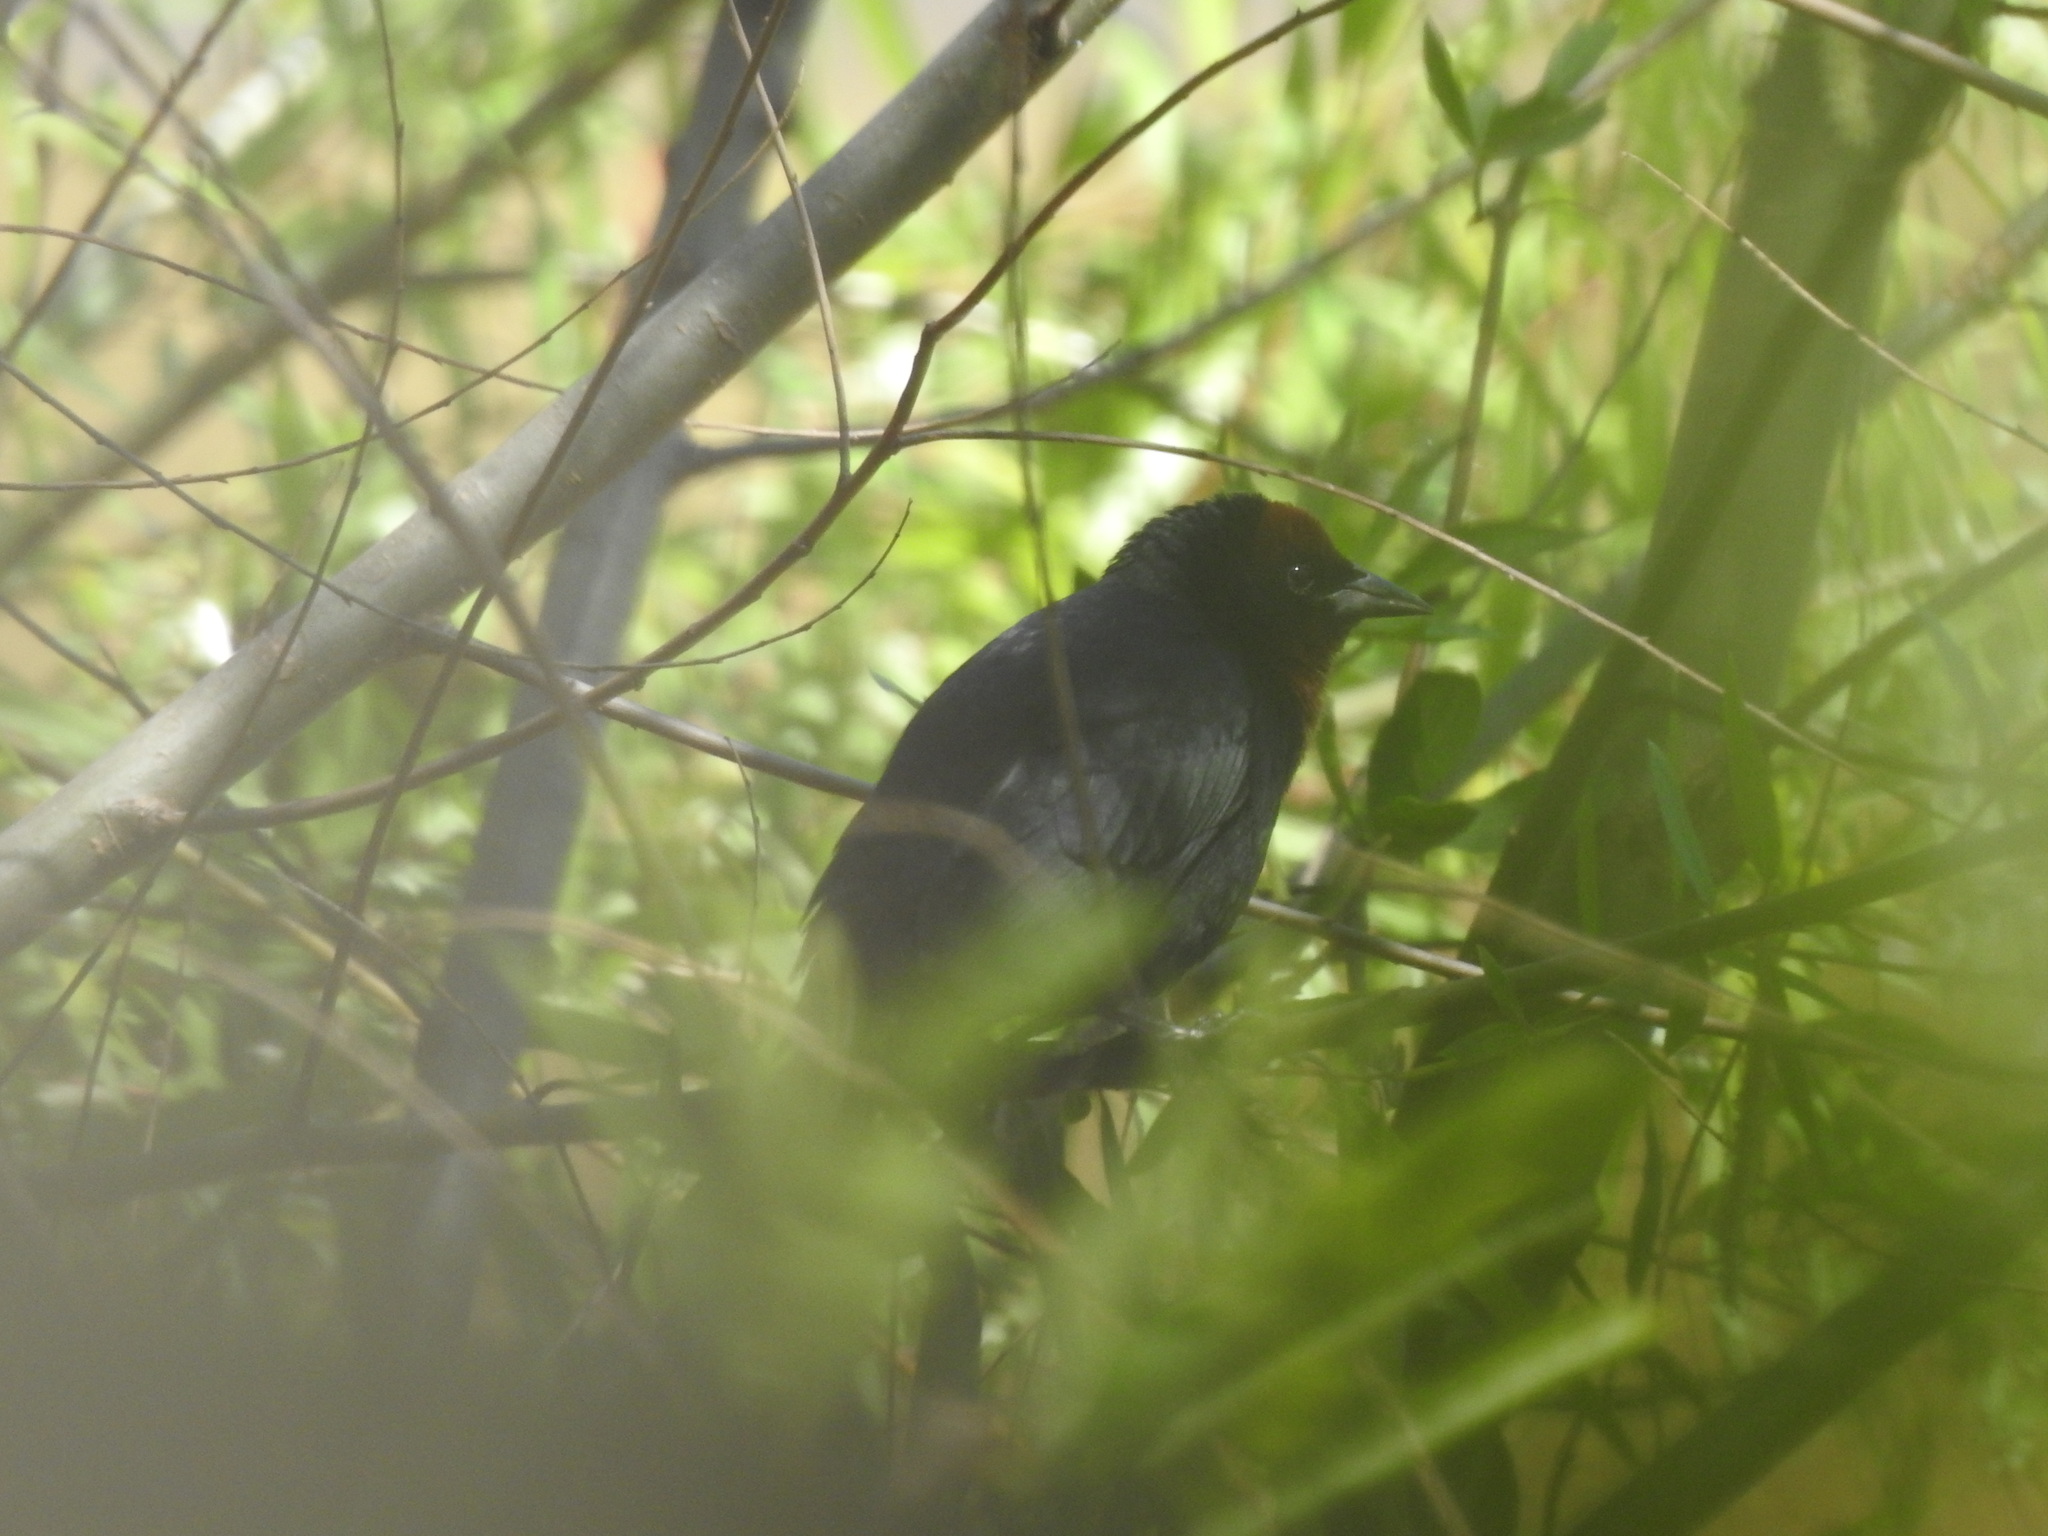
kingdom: Animalia
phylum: Chordata
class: Aves
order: Passeriformes
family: Icteridae
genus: Chrysomus
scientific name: Chrysomus ruficapillus
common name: Chestnut-capped blackbird
